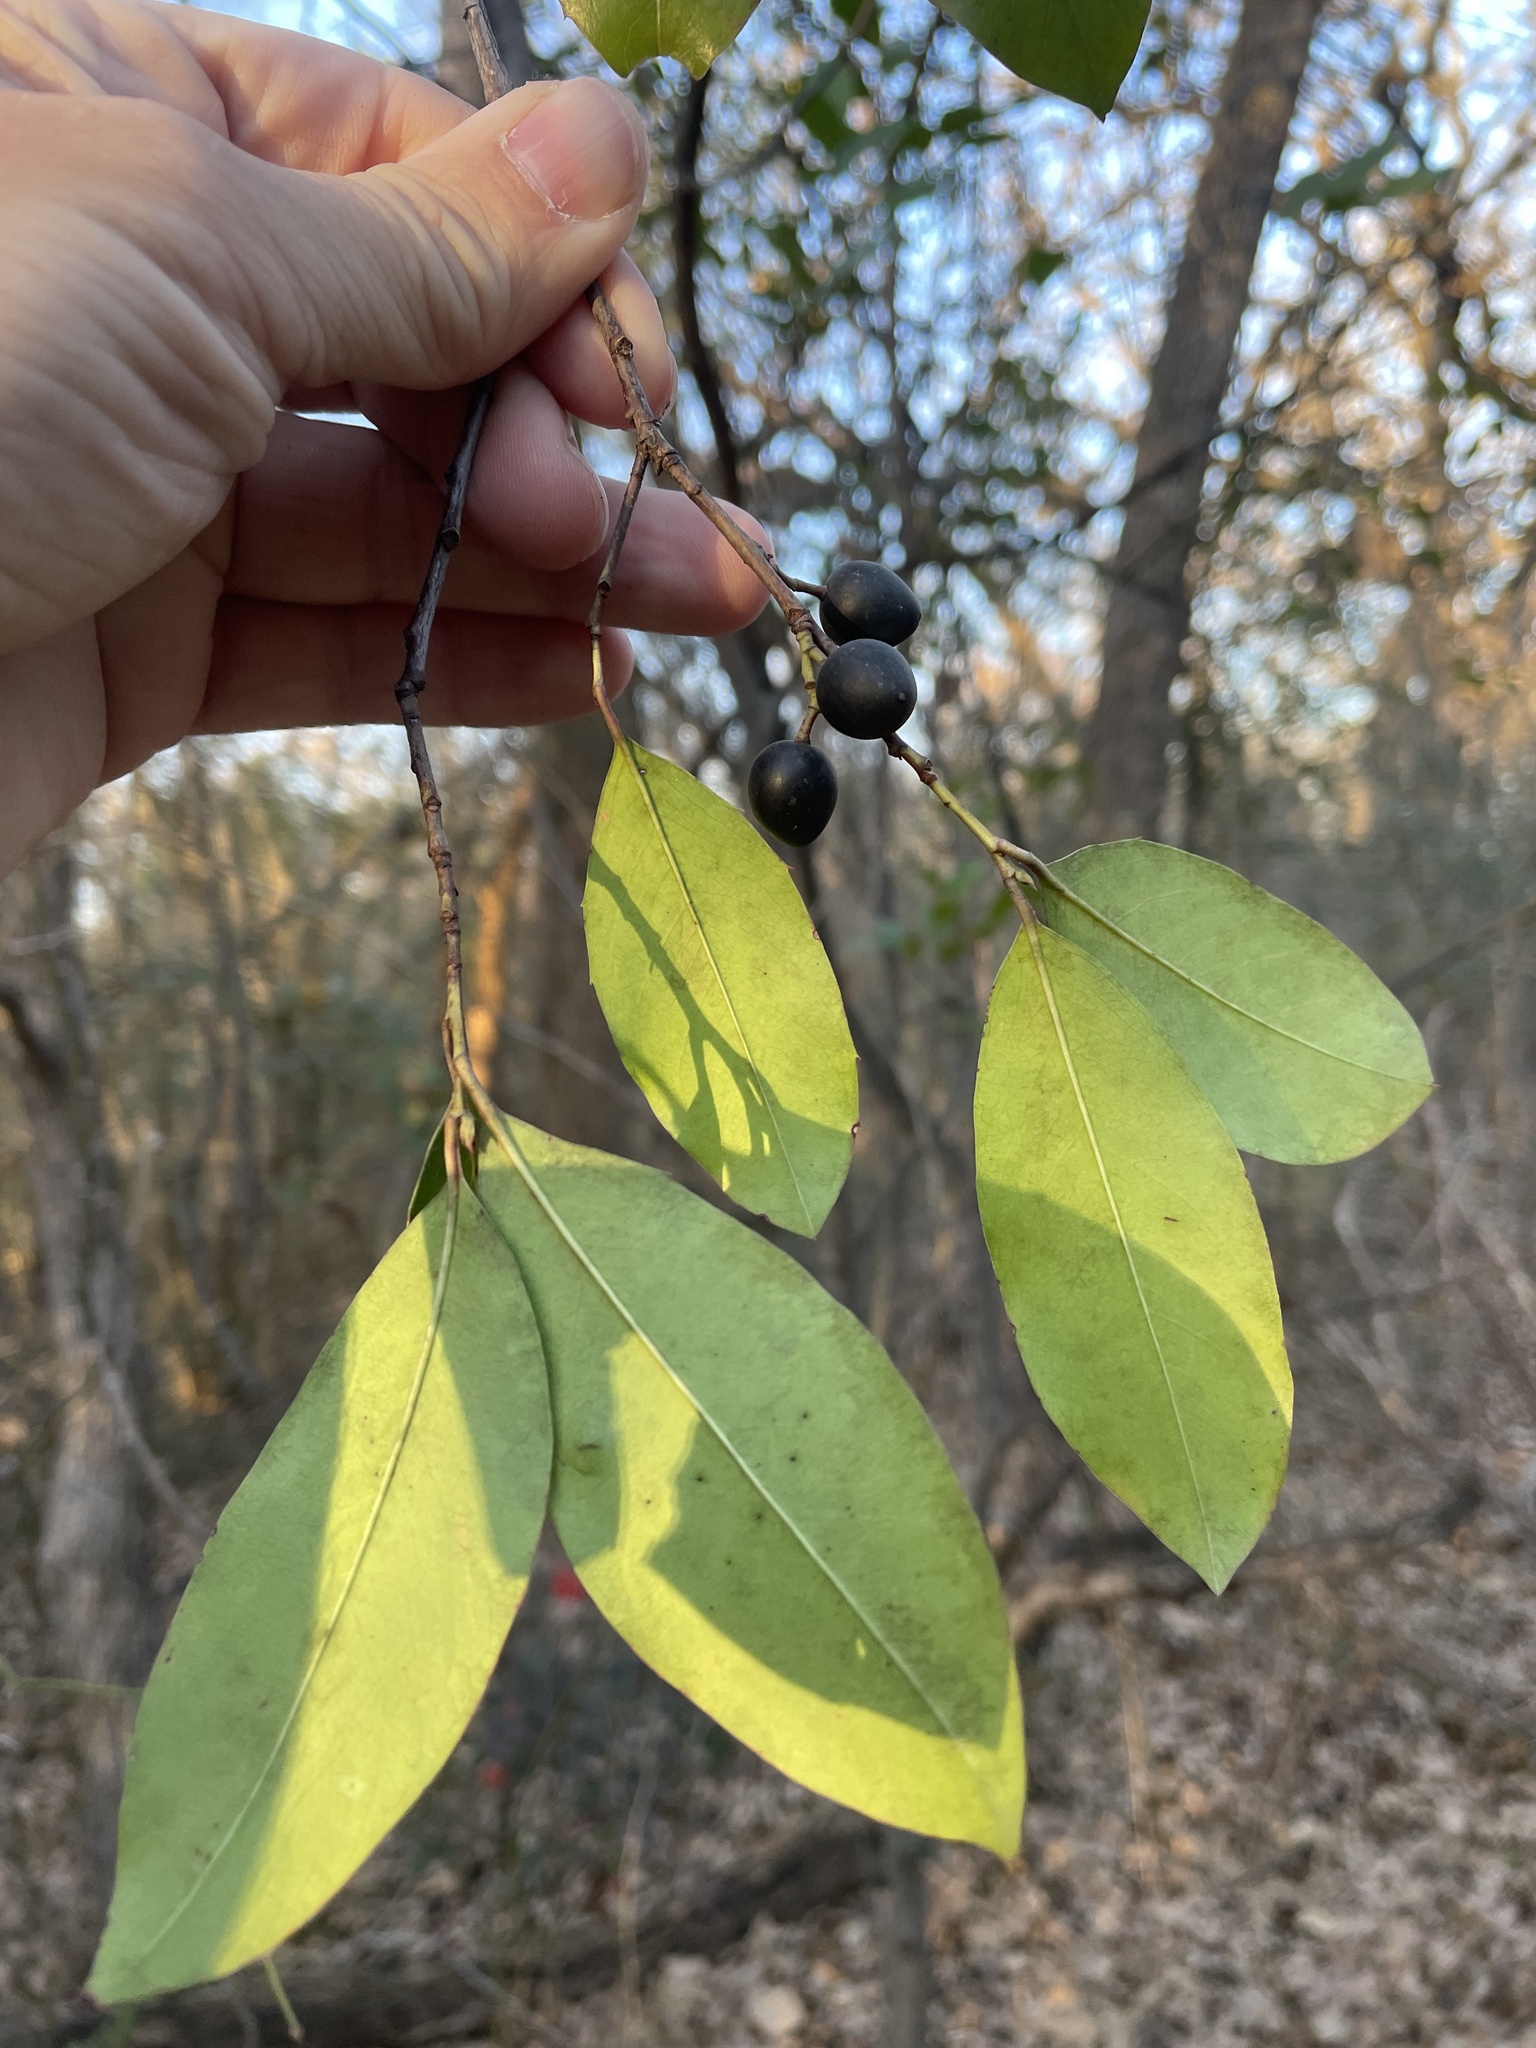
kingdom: Plantae
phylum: Tracheophyta
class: Magnoliopsida
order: Rosales
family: Rosaceae
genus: Prunus
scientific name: Prunus caroliniana
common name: Carolina laurel cherry
